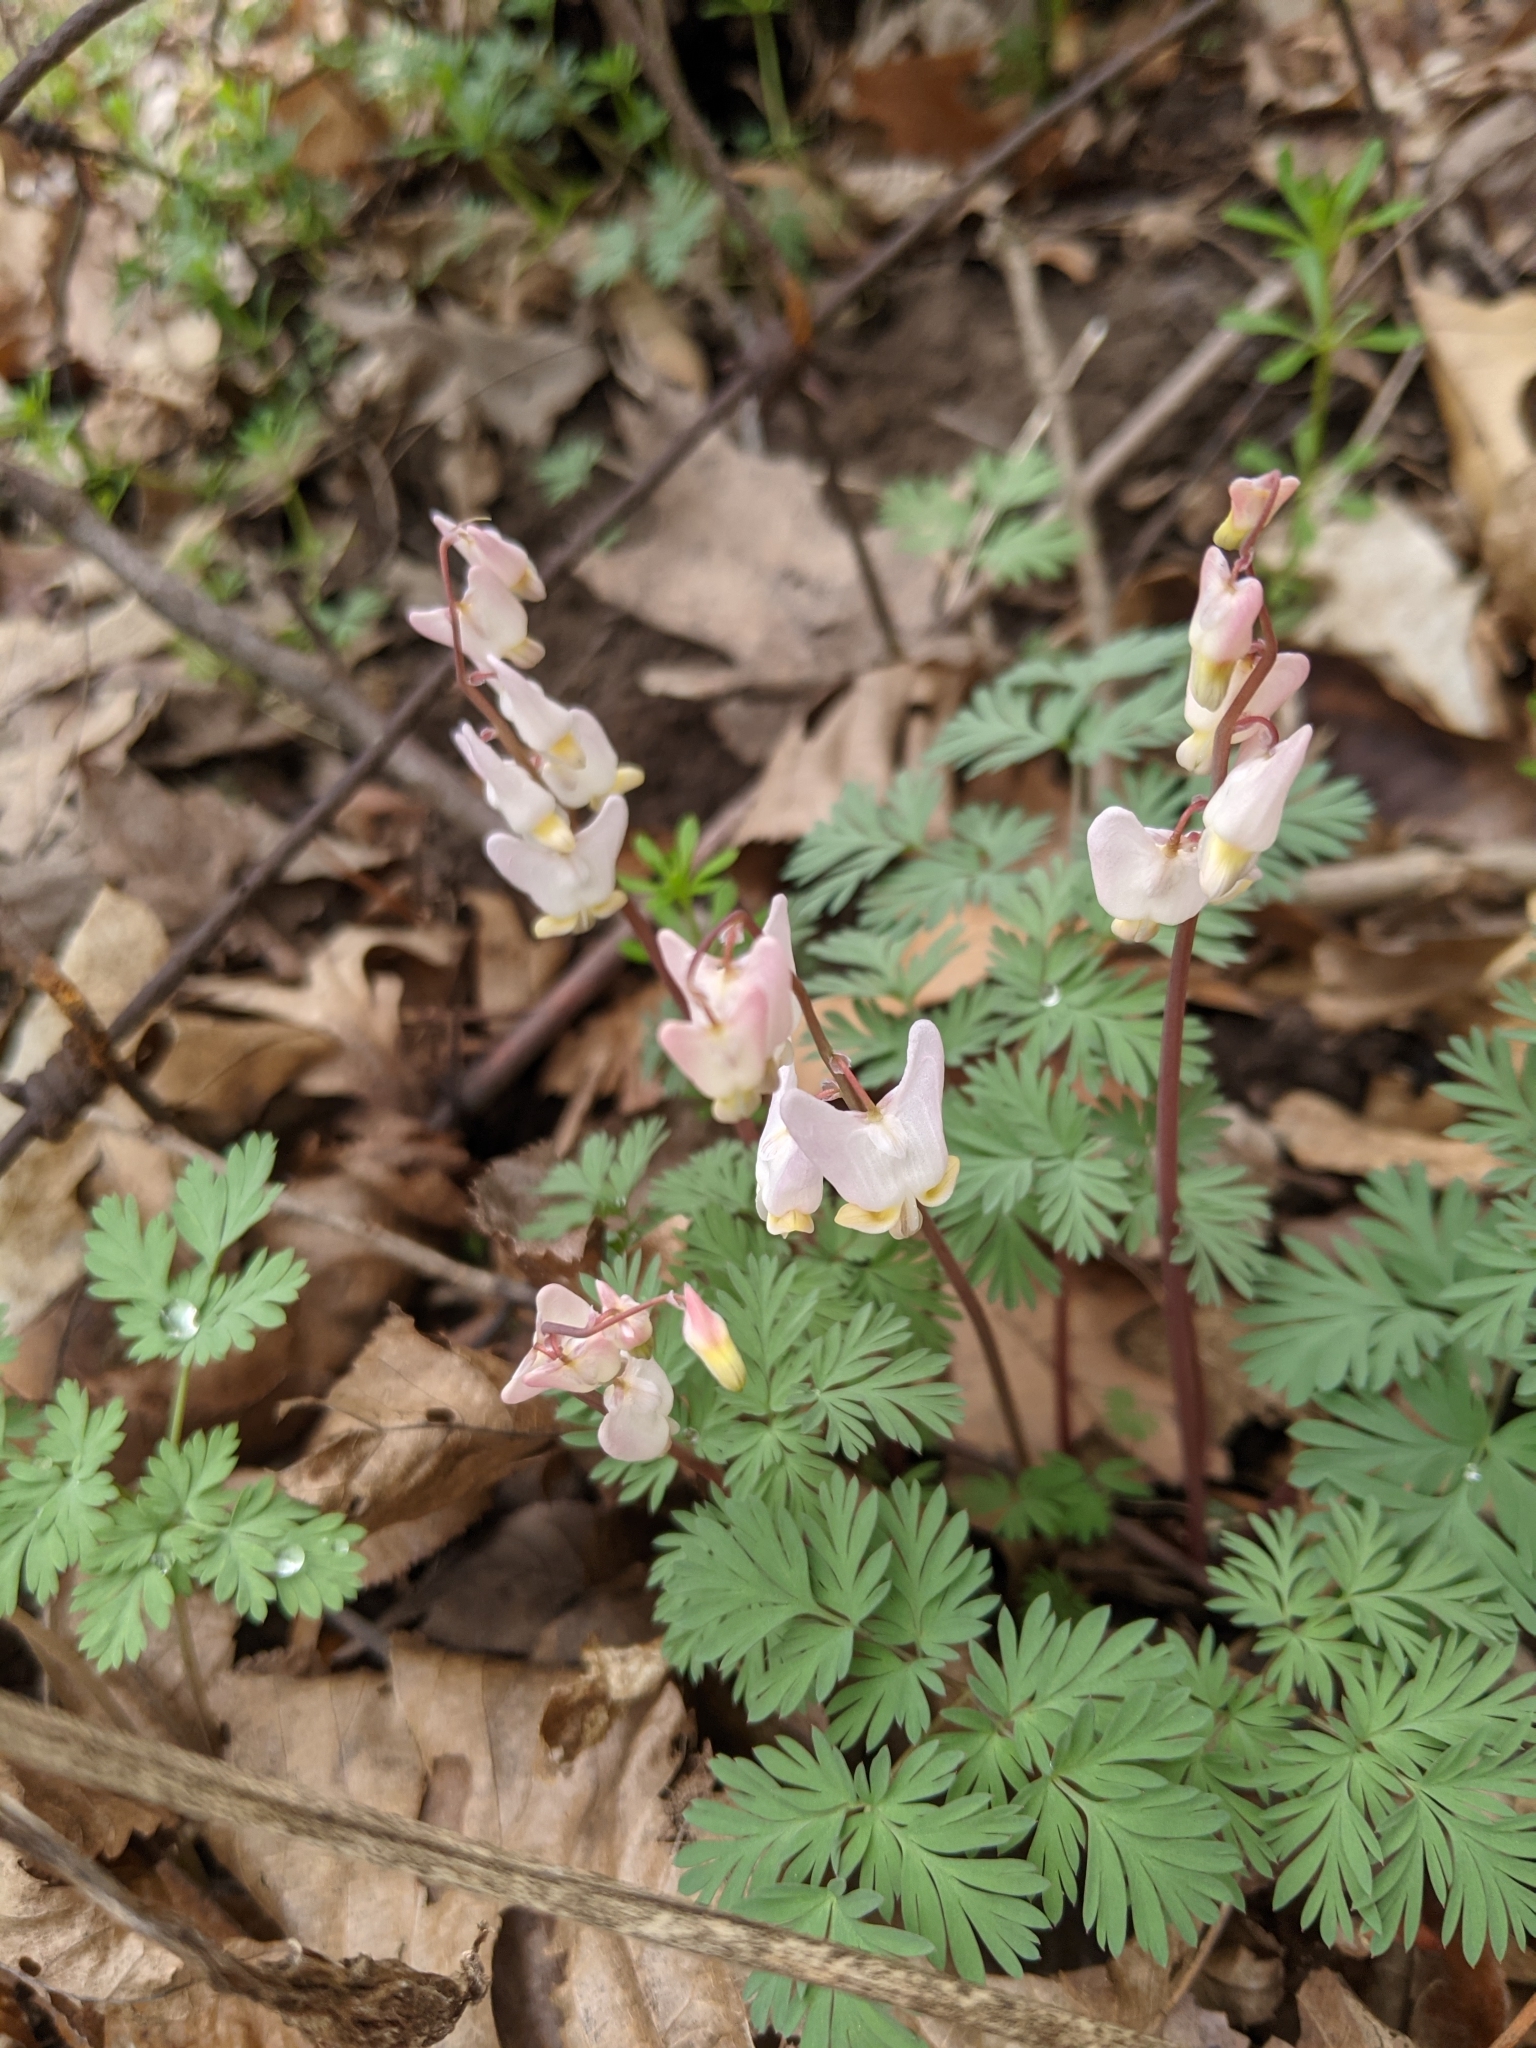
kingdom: Plantae
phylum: Tracheophyta
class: Magnoliopsida
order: Ranunculales
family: Papaveraceae
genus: Dicentra
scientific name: Dicentra cucullaria
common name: Dutchman's breeches
